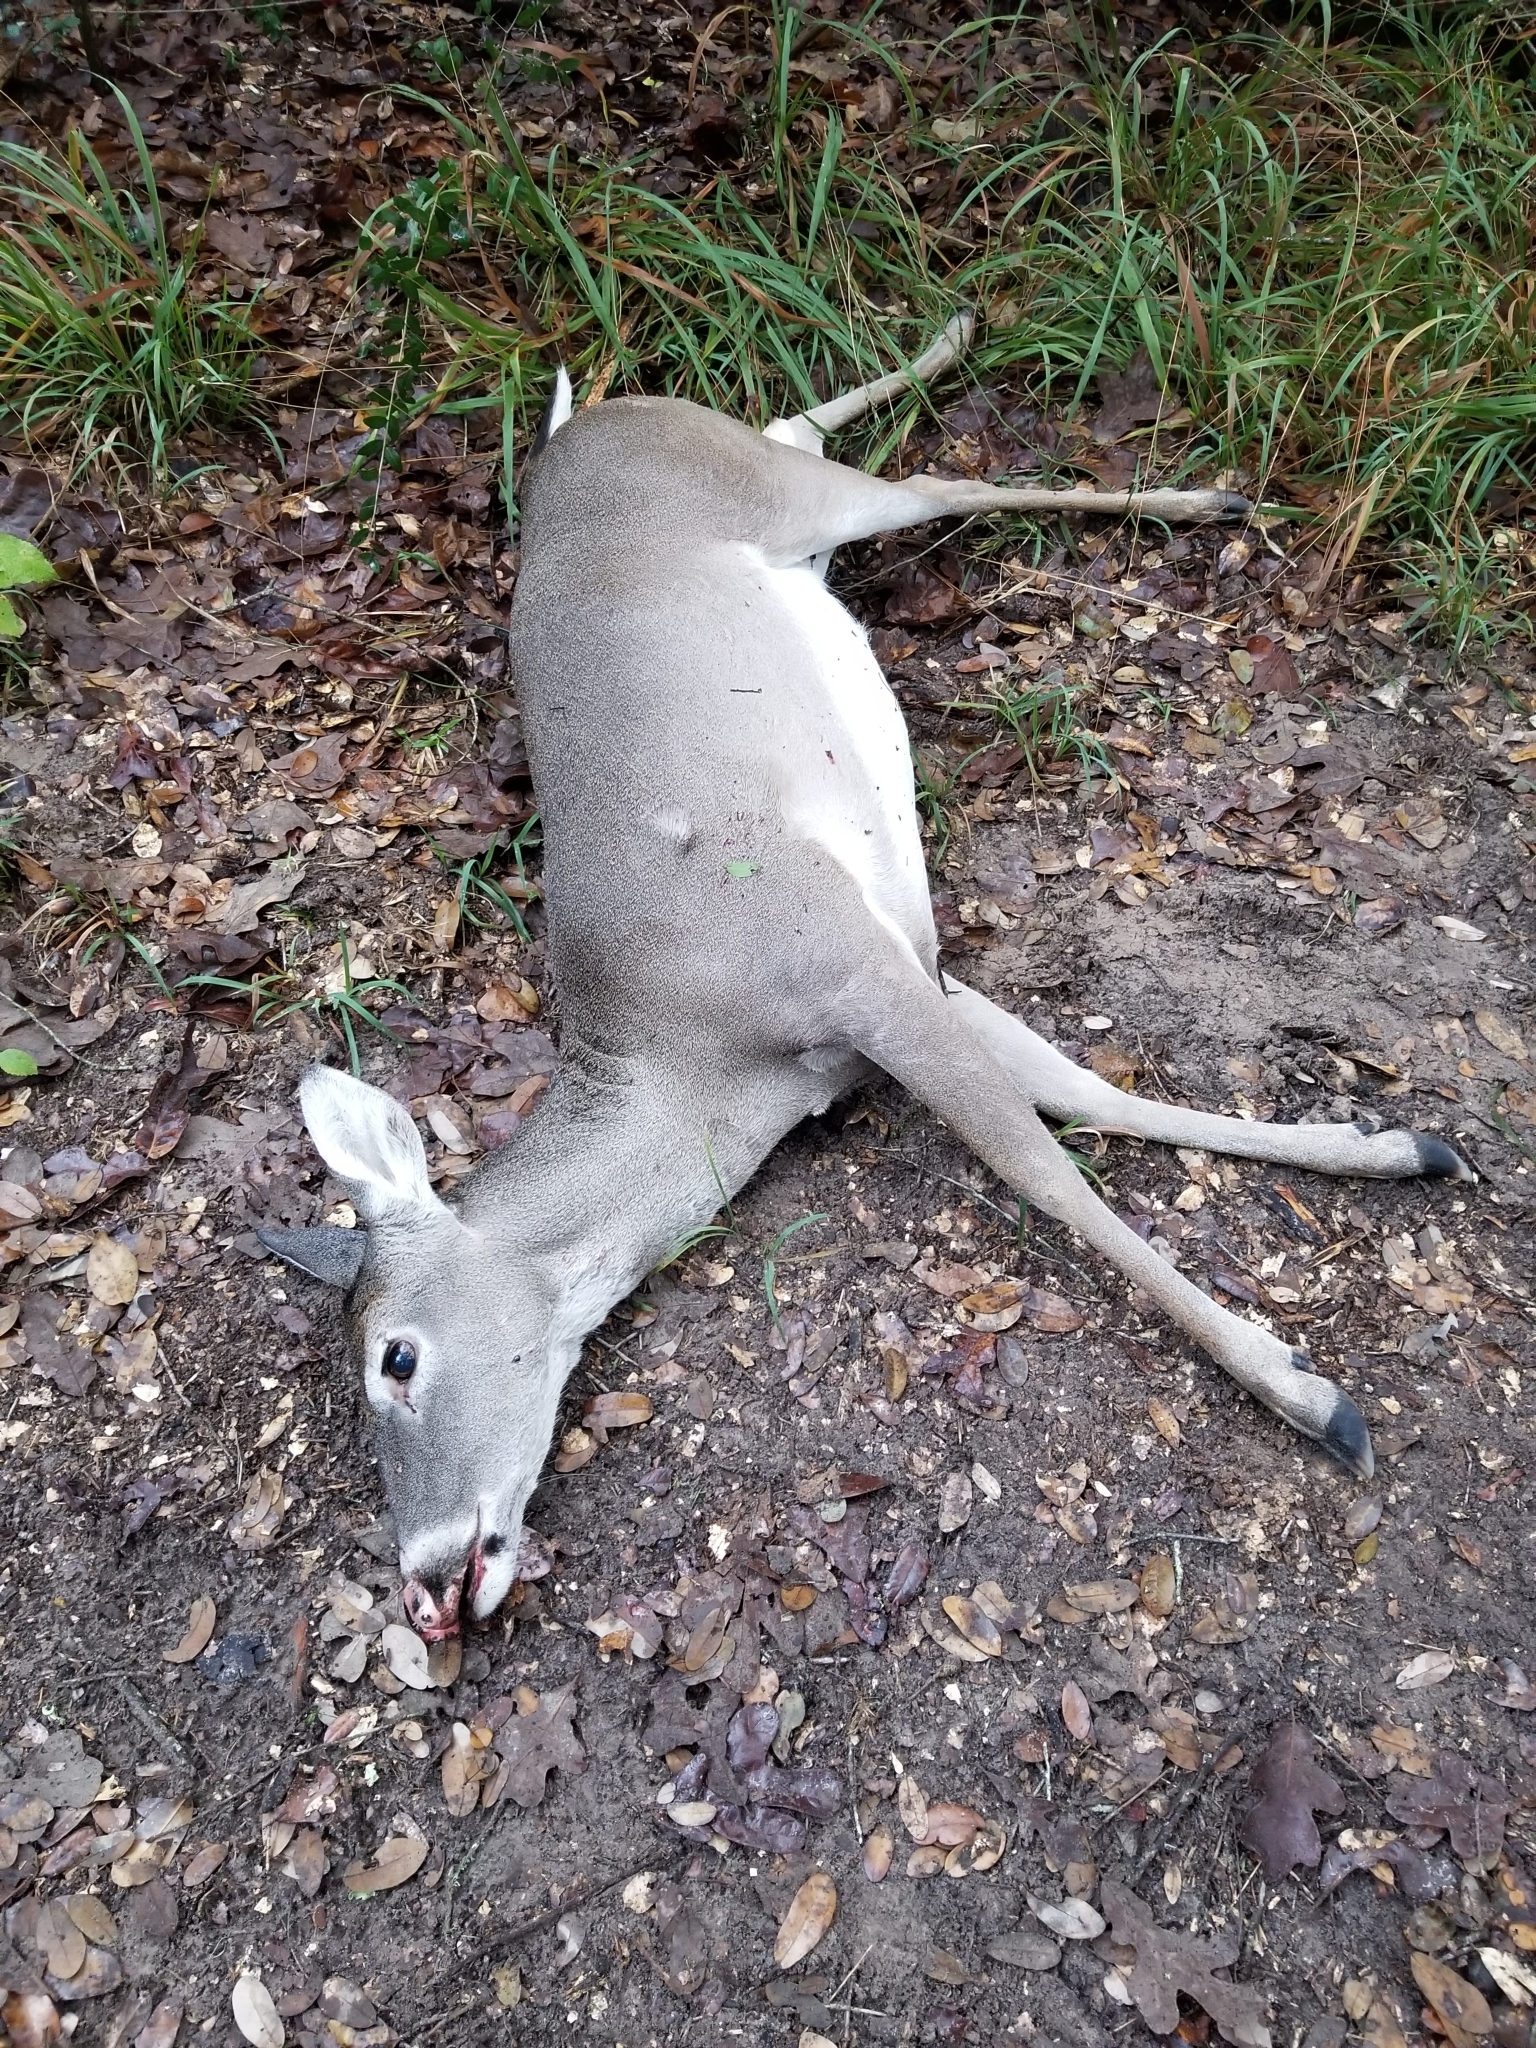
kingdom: Animalia
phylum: Chordata
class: Mammalia
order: Artiodactyla
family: Cervidae
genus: Odocoileus
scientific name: Odocoileus virginianus
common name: White-tailed deer
